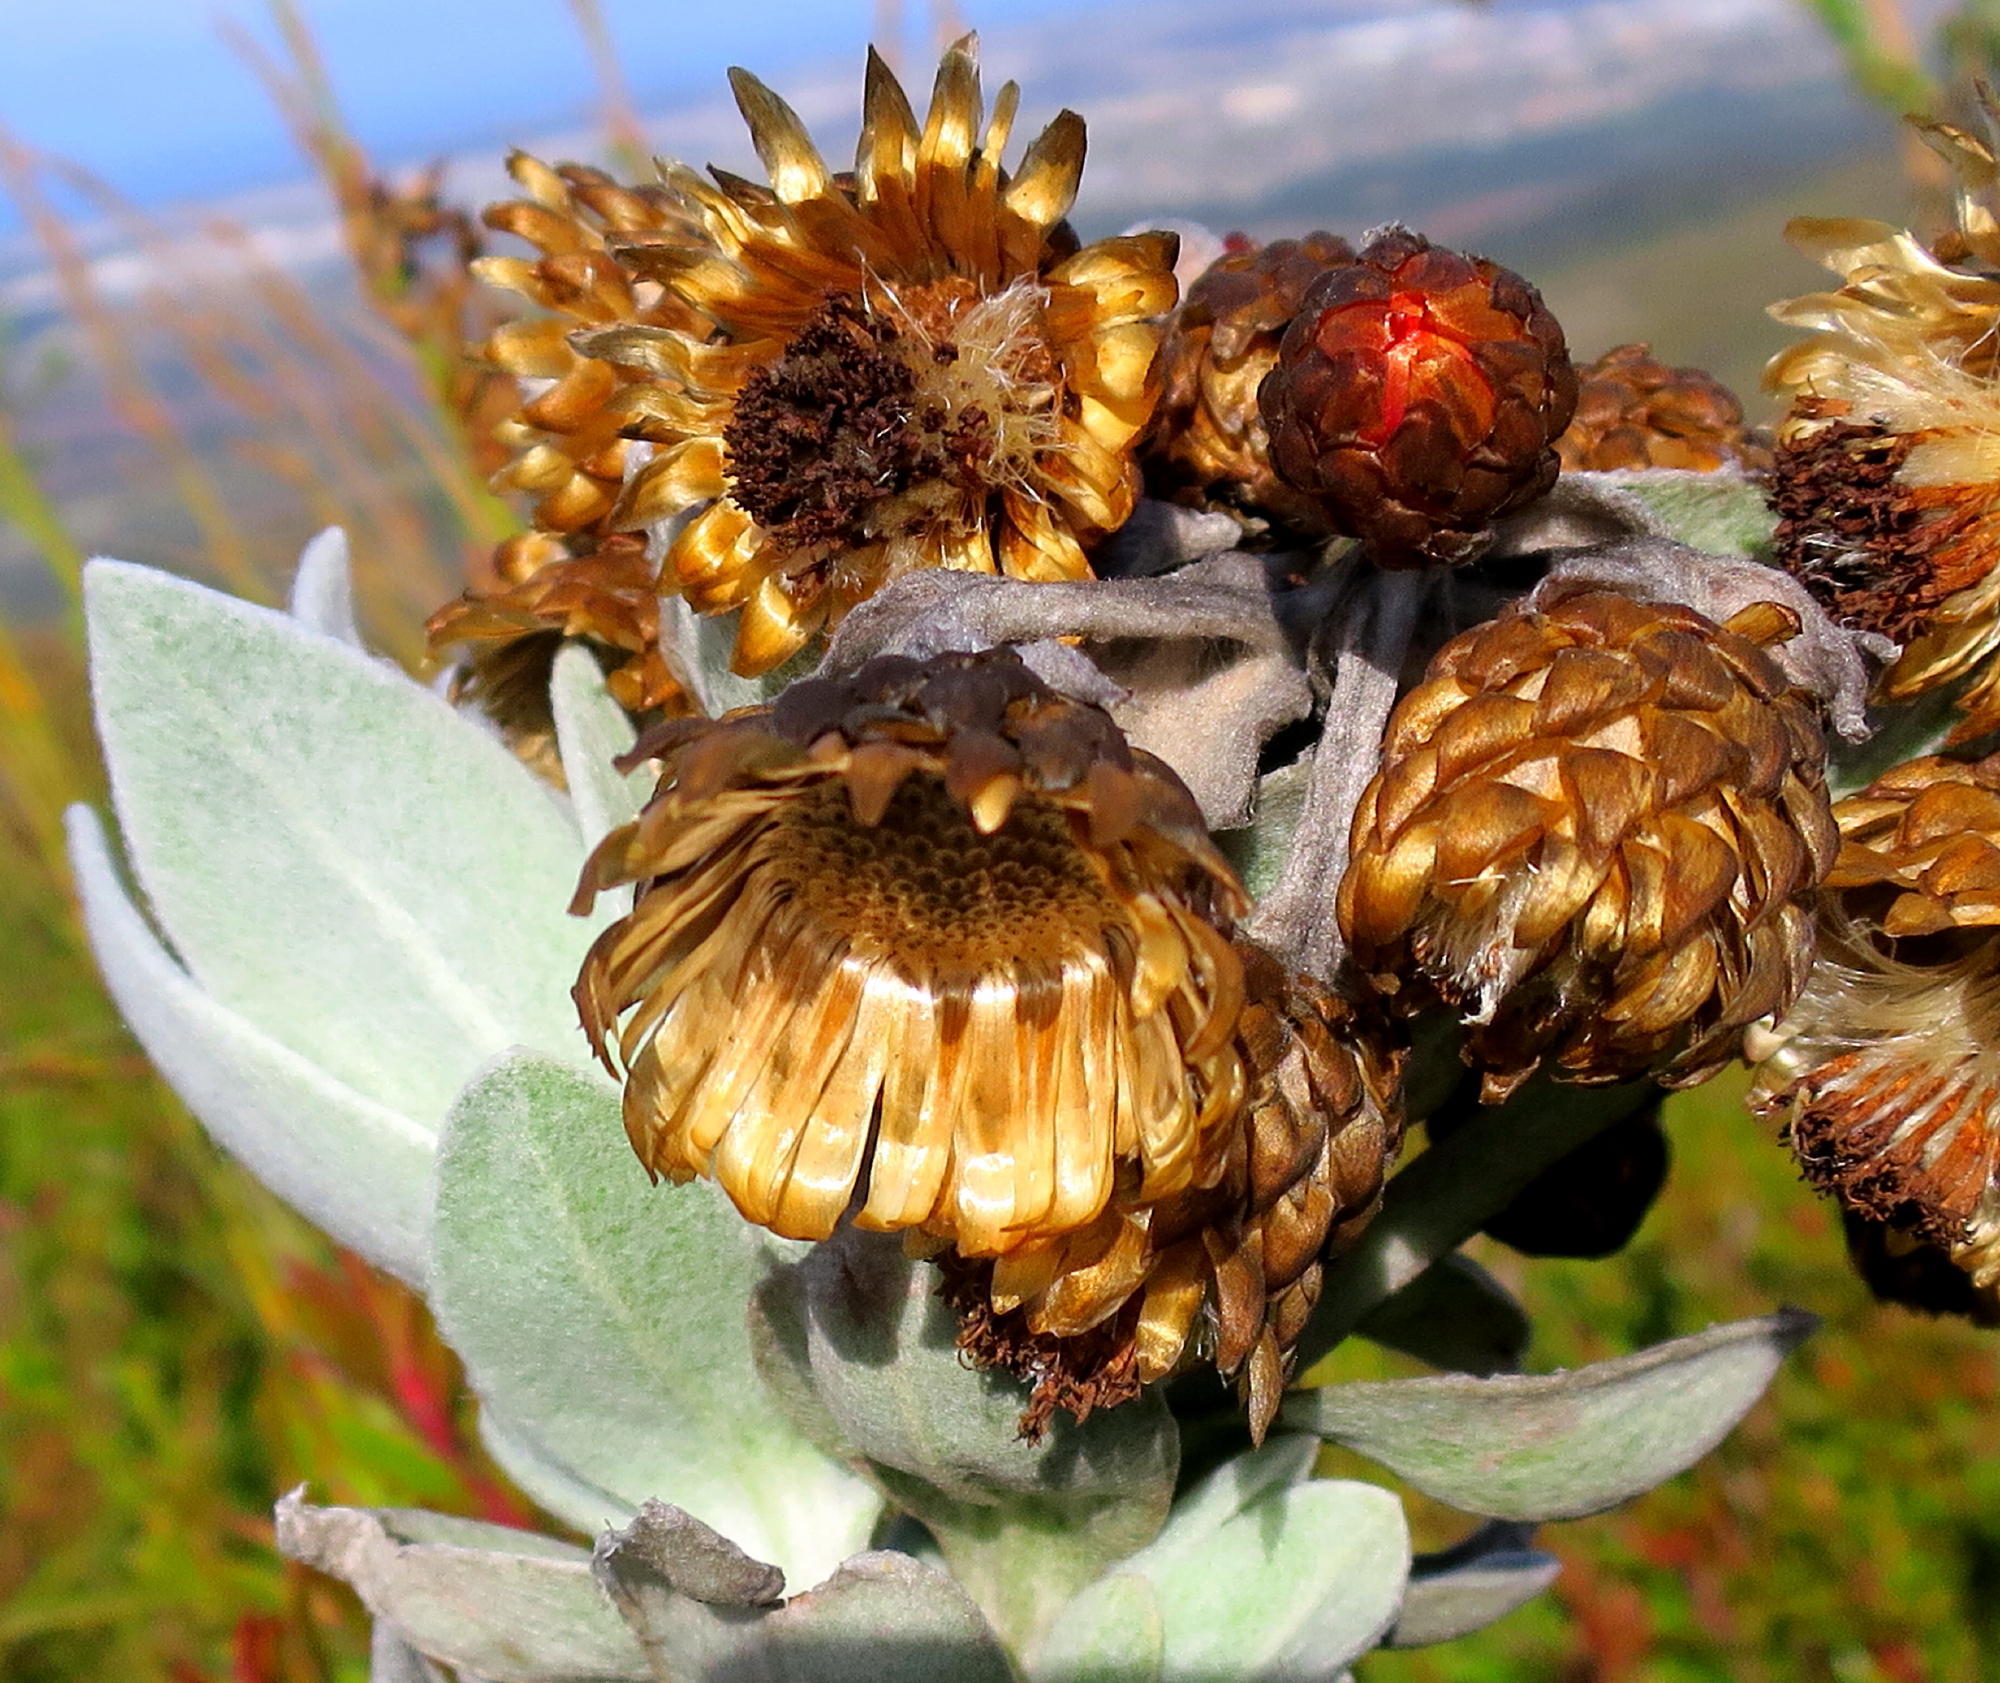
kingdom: Plantae
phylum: Tracheophyta
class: Magnoliopsida
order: Asterales
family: Asteraceae
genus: Syncarpha
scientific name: Syncarpha eximia
